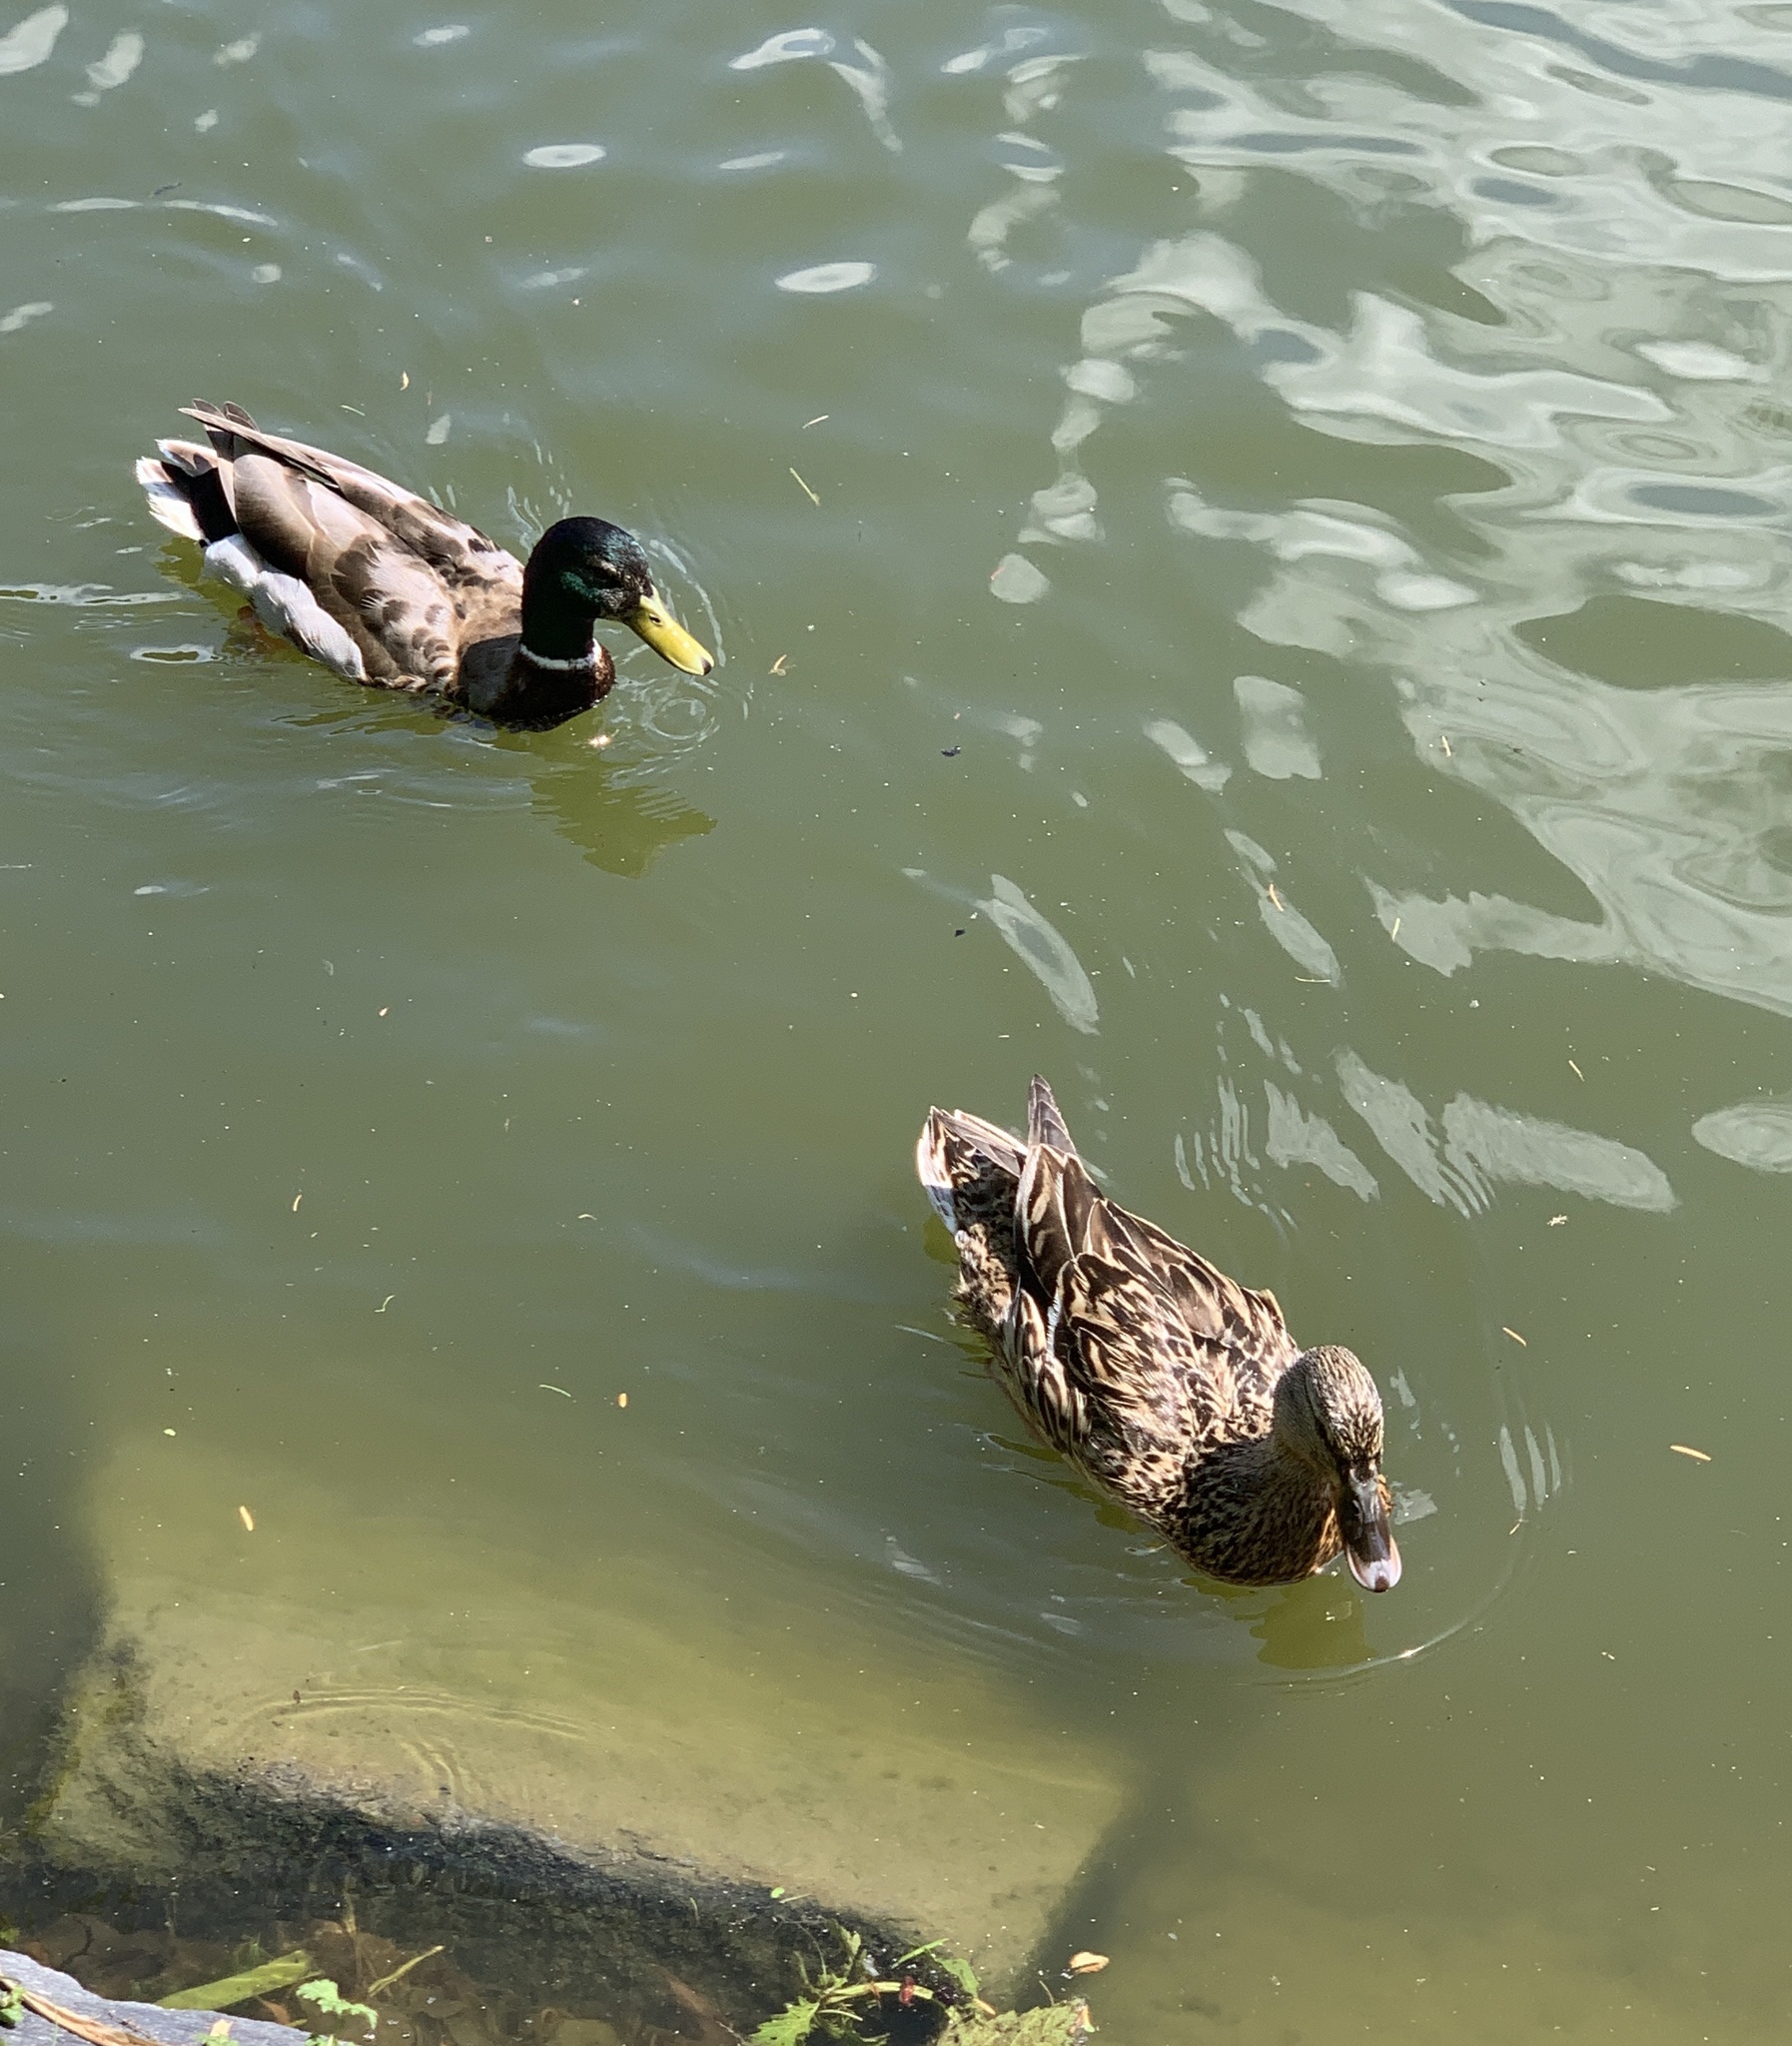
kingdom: Animalia
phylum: Chordata
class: Aves
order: Anseriformes
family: Anatidae
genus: Anas
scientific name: Anas platyrhynchos
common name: Mallard
